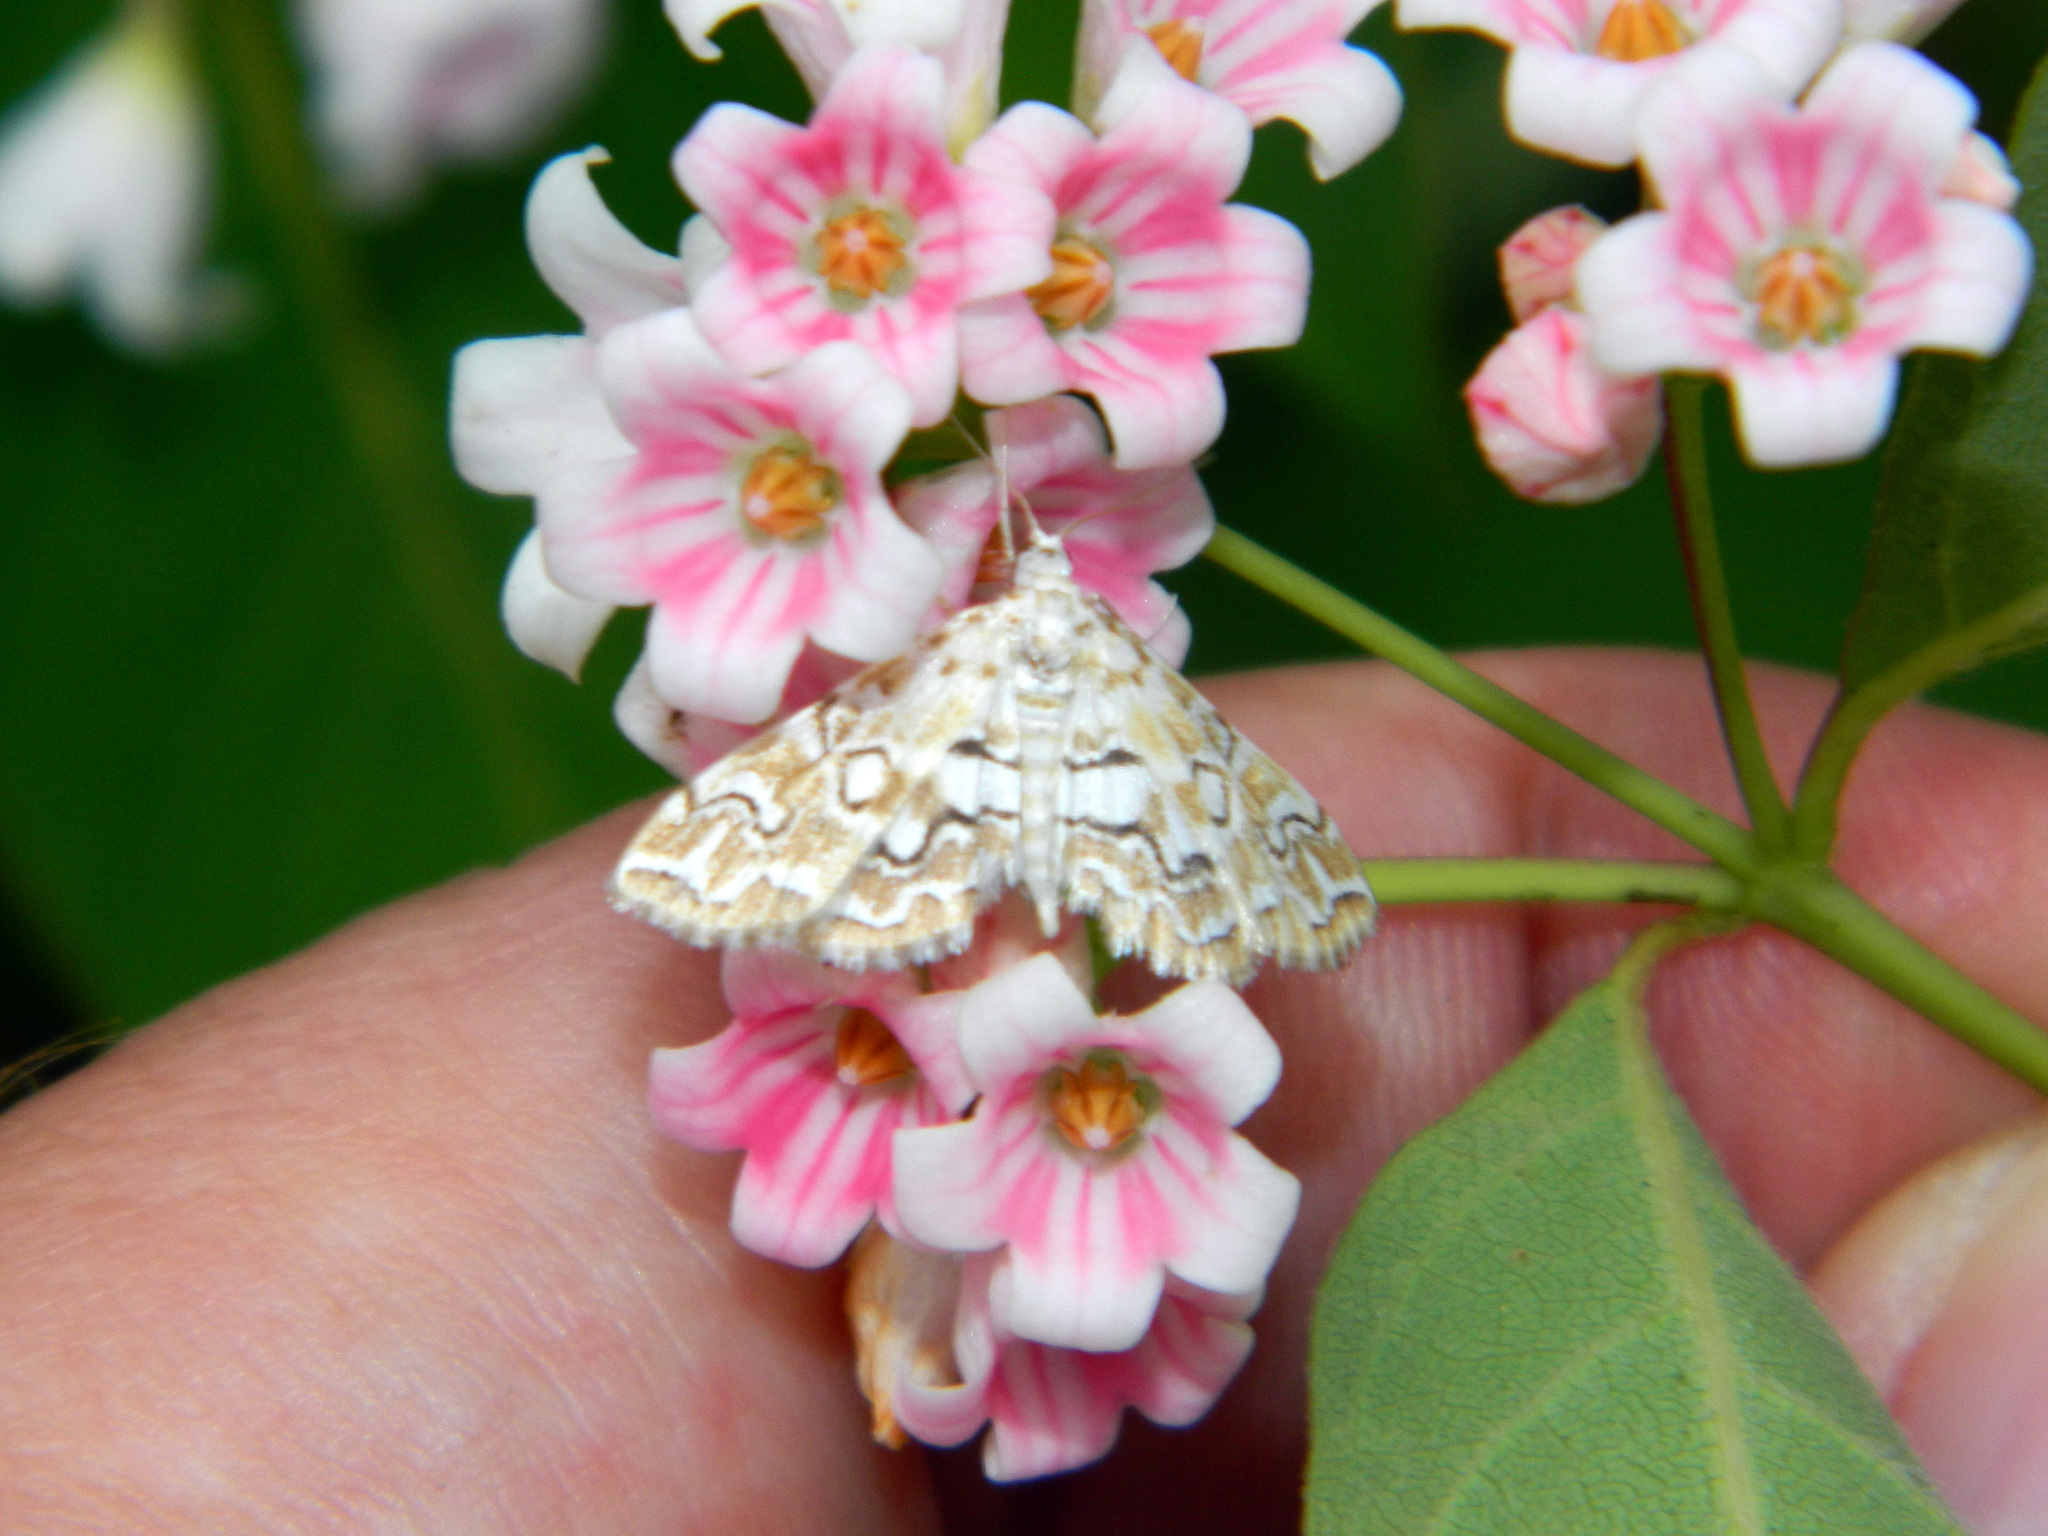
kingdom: Animalia
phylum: Arthropoda
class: Insecta
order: Lepidoptera
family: Crambidae
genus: Elophila
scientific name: Elophila icciusalis
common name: Pondside pyralid moth
